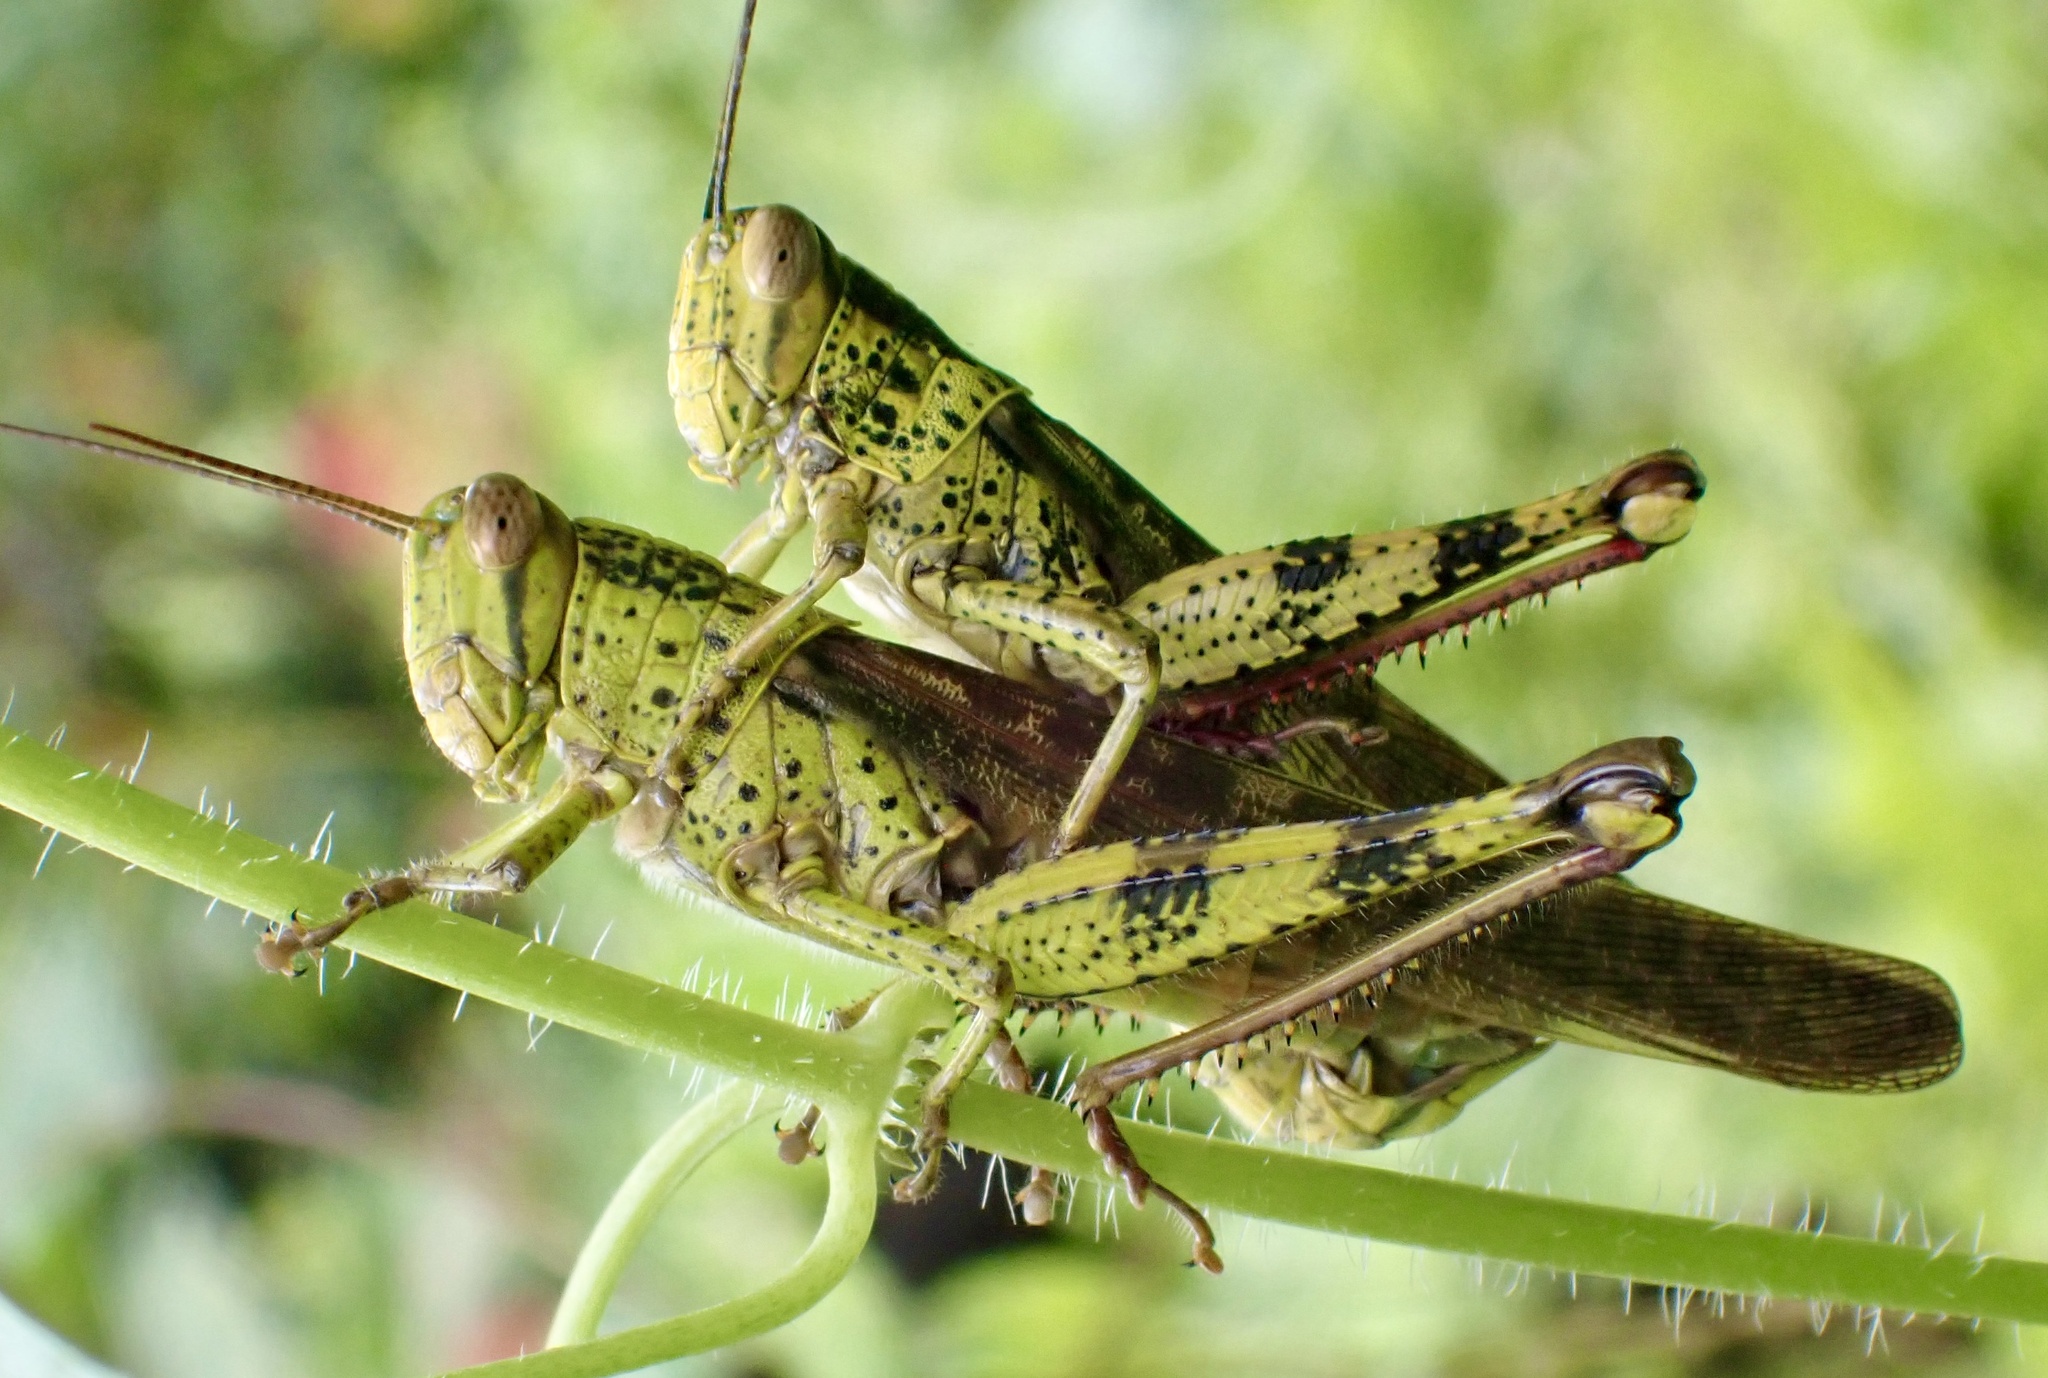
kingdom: Animalia
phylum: Arthropoda
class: Insecta
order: Orthoptera
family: Acrididae
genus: Valanga
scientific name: Valanga nigricornis
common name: Javanese bird grasshopper
